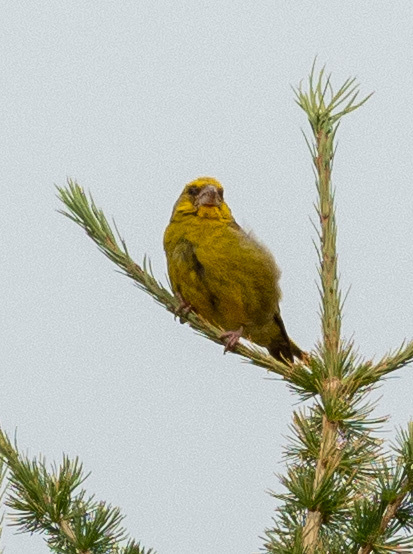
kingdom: Plantae
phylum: Tracheophyta
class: Liliopsida
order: Poales
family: Poaceae
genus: Chloris
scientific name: Chloris chloris
